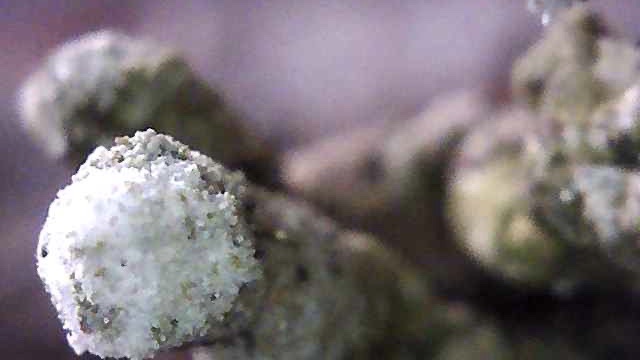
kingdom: Fungi
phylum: Ascomycota
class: Lecanoromycetes
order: Lecanorales
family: Parmeliaceae
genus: Hypogymnia
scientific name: Hypogymnia tubulosa
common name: Powder-headed tube lichen
